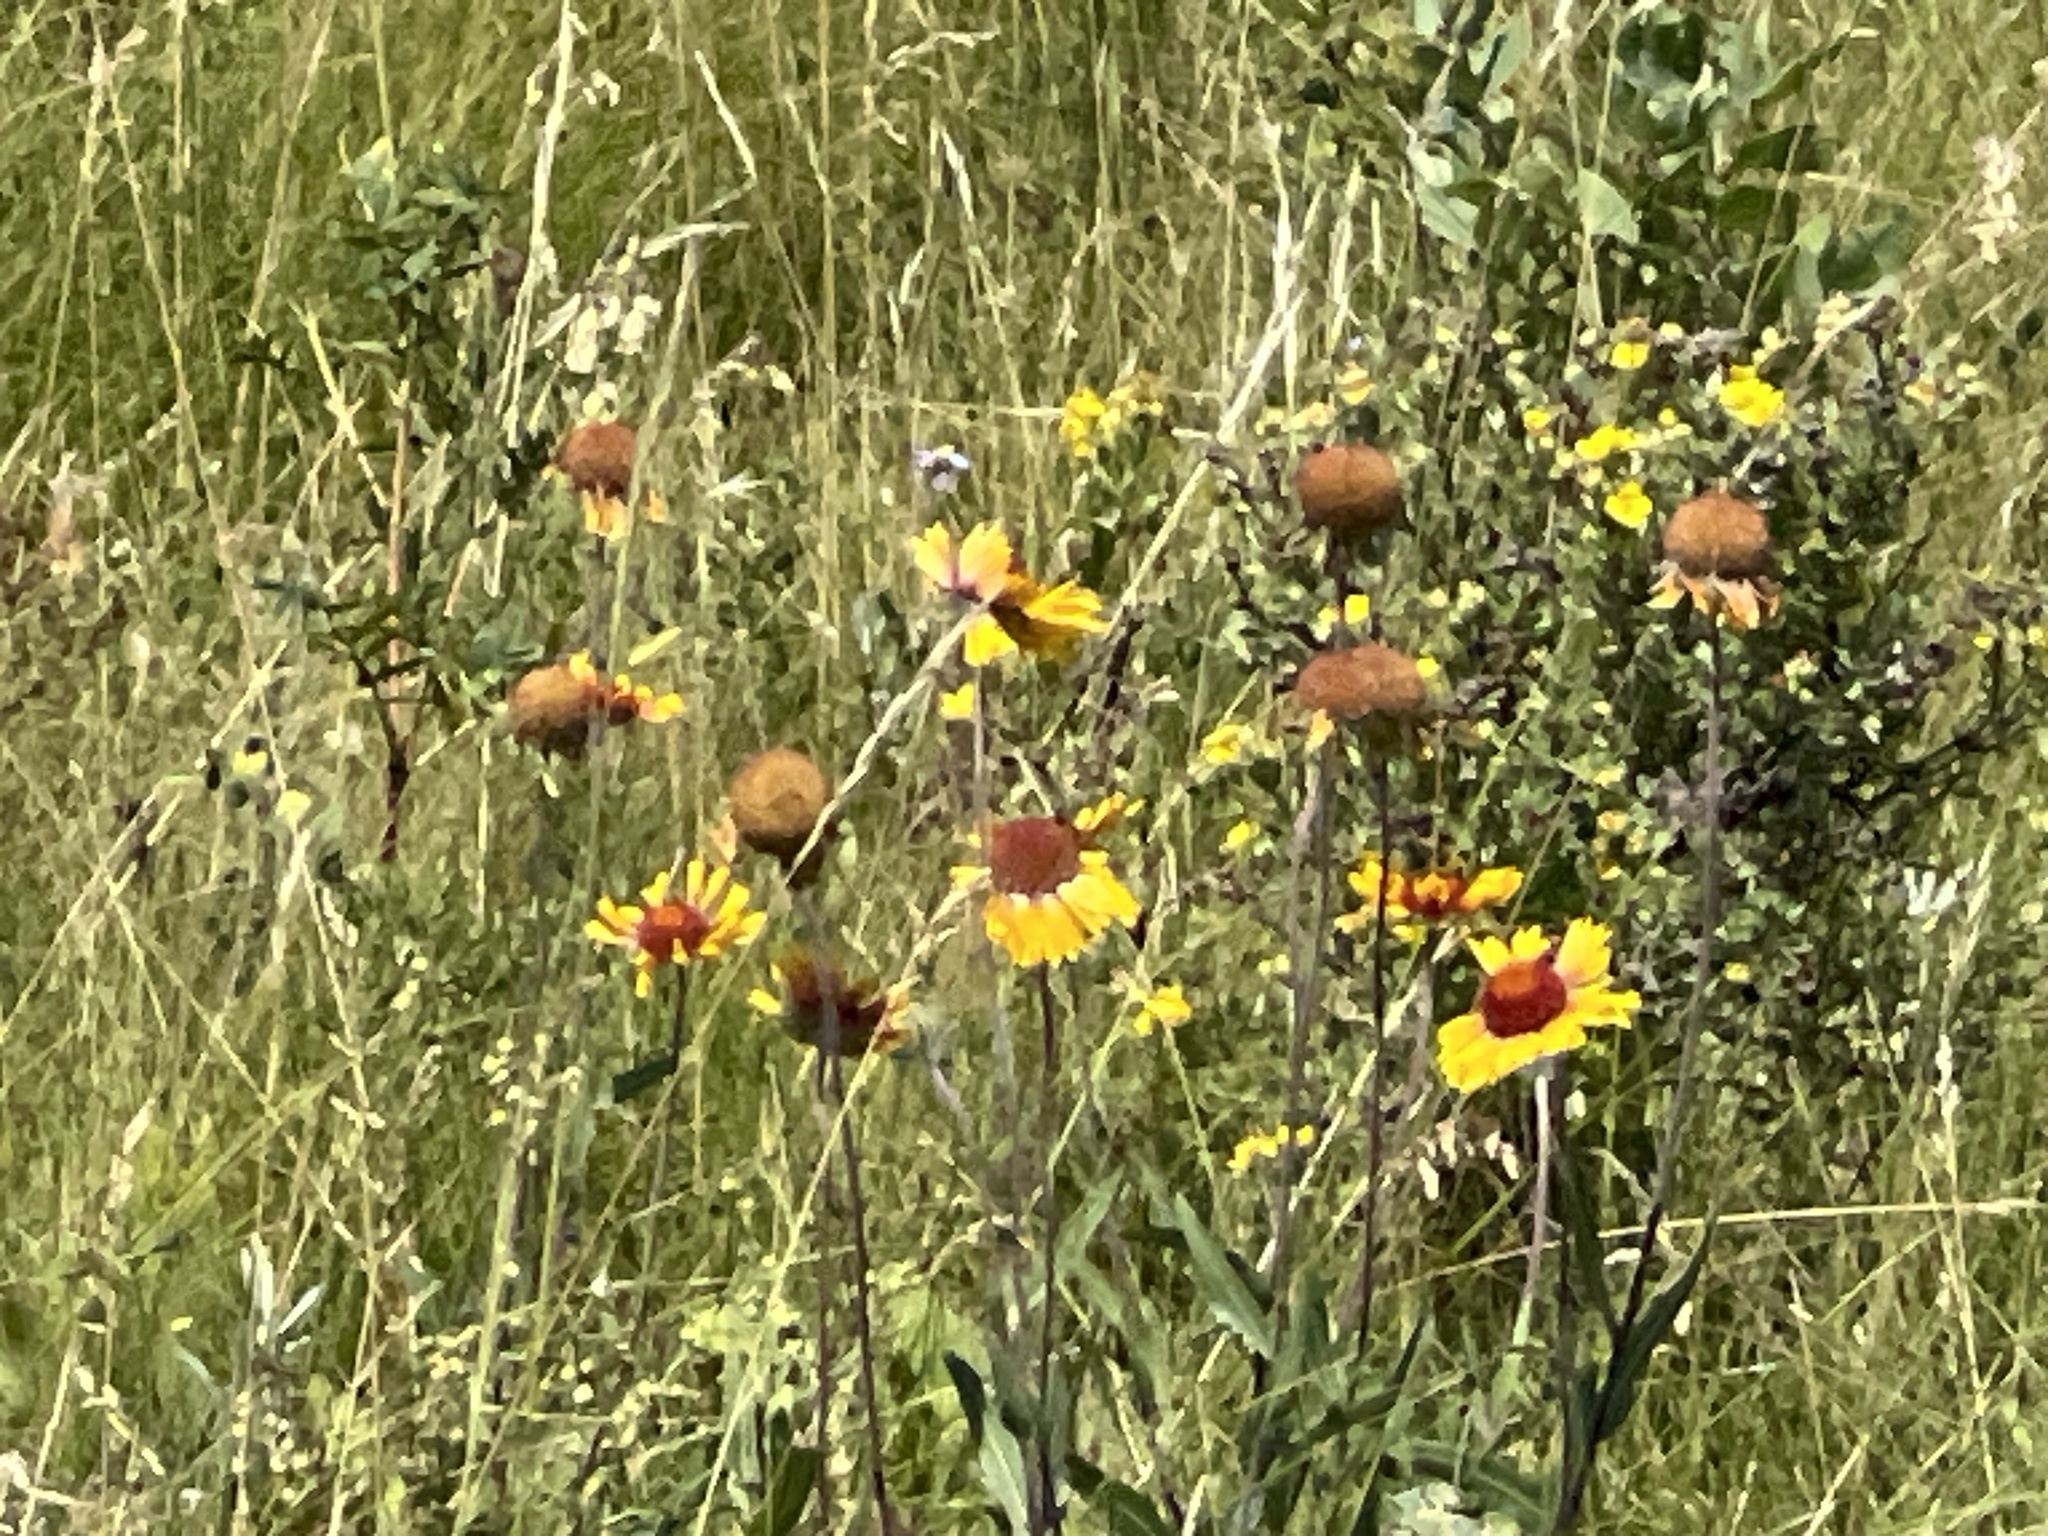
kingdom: Plantae
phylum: Tracheophyta
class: Magnoliopsida
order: Asterales
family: Asteraceae
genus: Gaillardia
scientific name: Gaillardia aristata
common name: Blanket-flower
